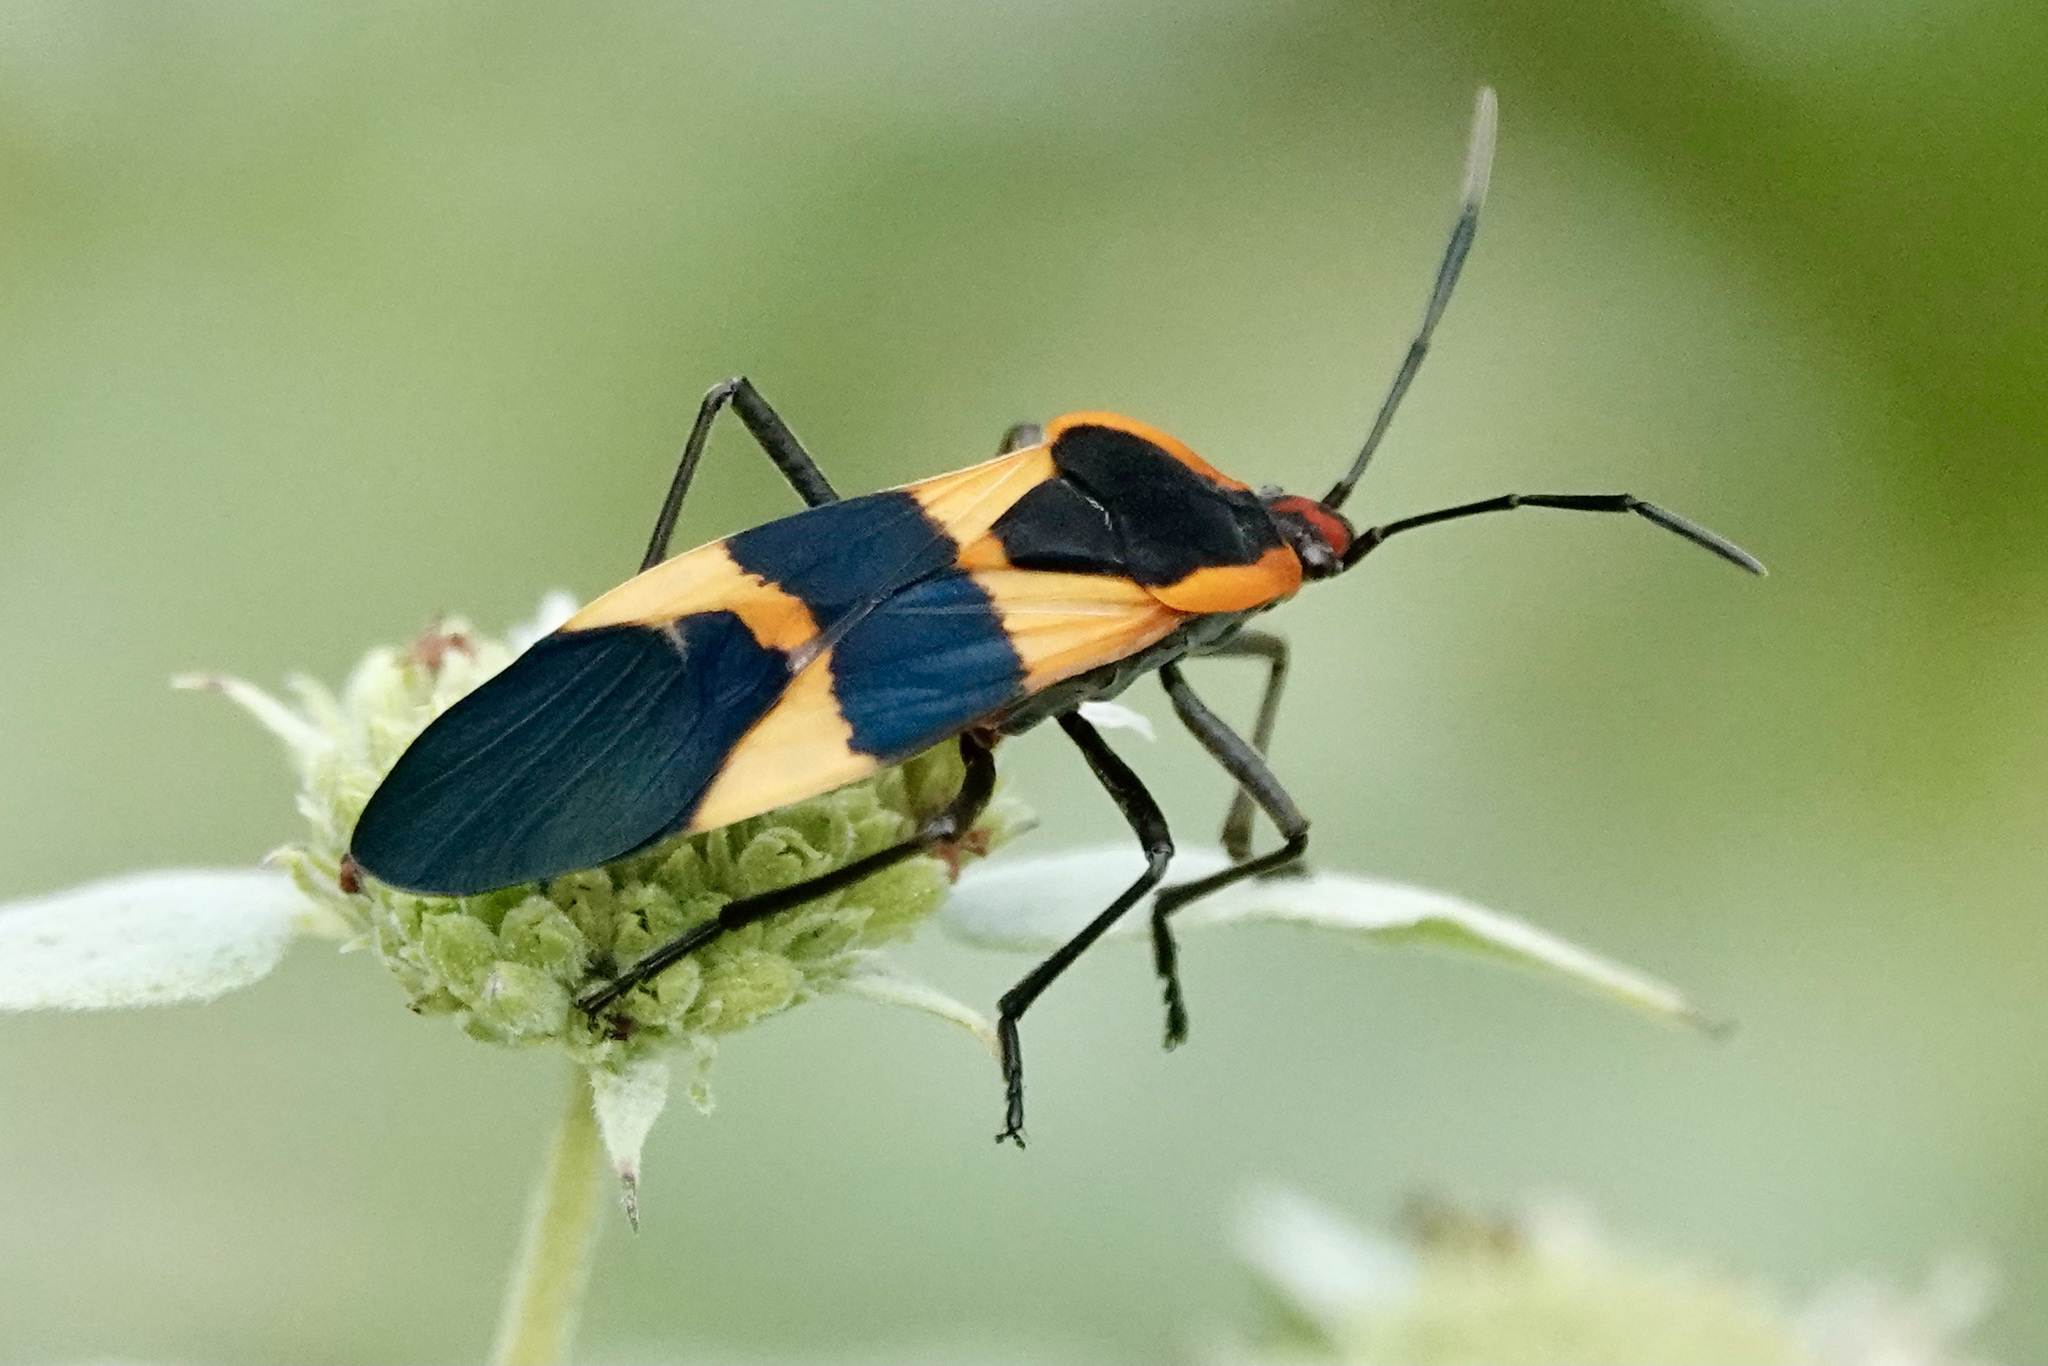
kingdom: Animalia
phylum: Arthropoda
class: Insecta
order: Hemiptera
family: Lygaeidae
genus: Oncopeltus
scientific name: Oncopeltus fasciatus
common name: Large milkweed bug
